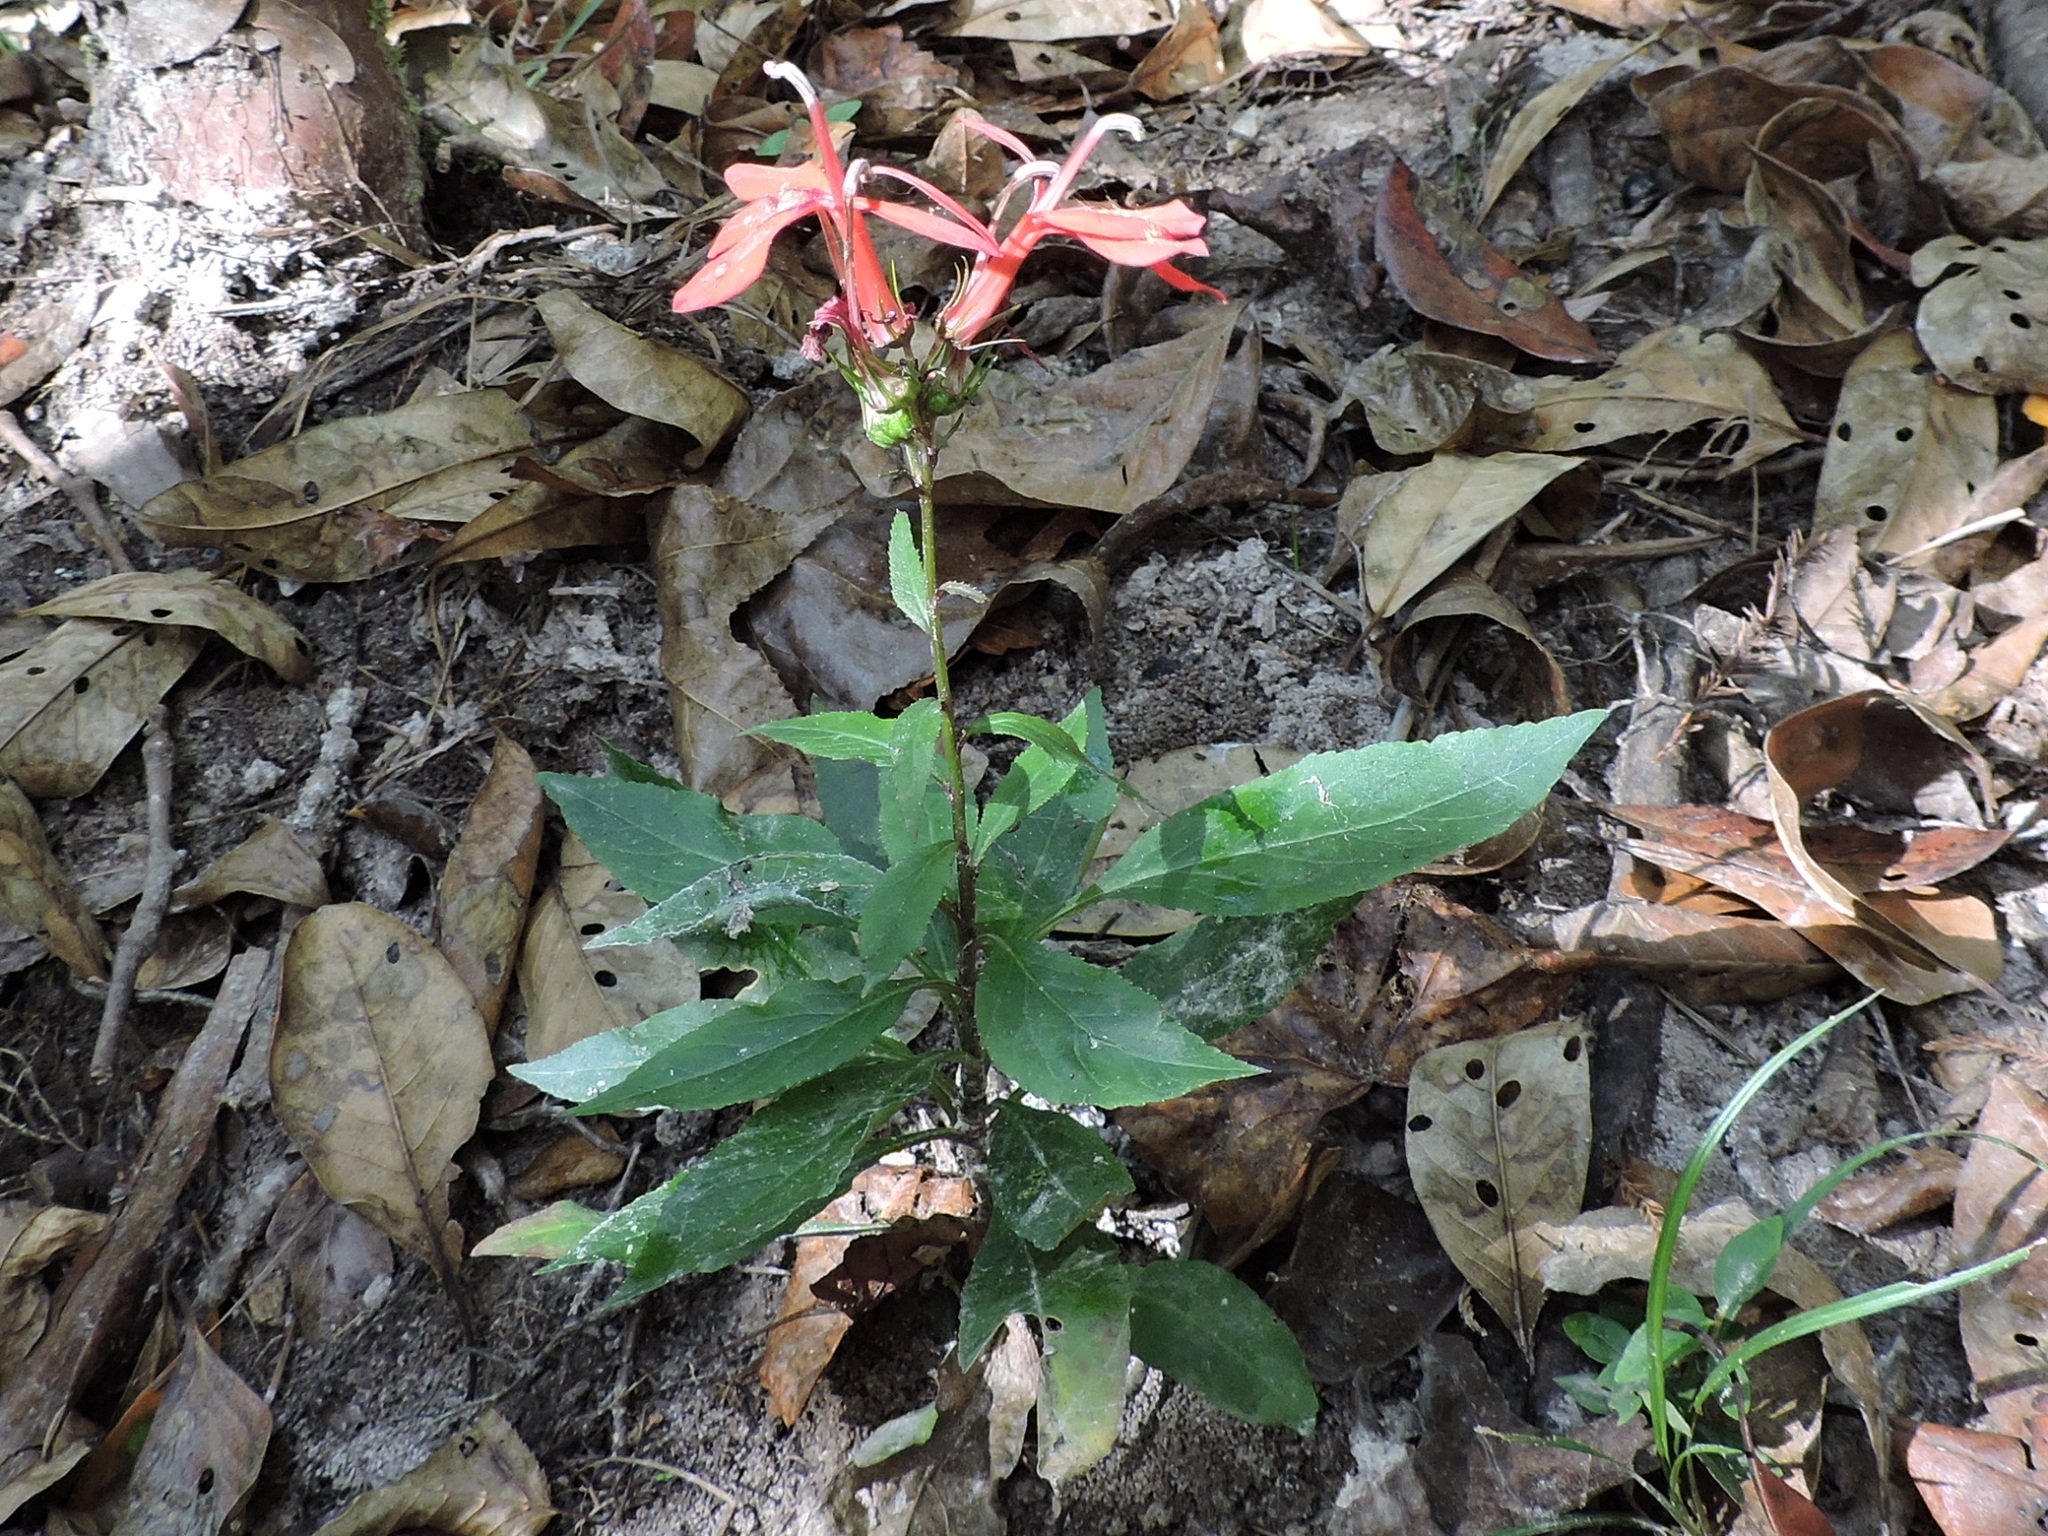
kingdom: Plantae
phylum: Tracheophyta
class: Magnoliopsida
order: Asterales
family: Campanulaceae
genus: Lobelia
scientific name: Lobelia cardinalis
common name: Cardinal flower
